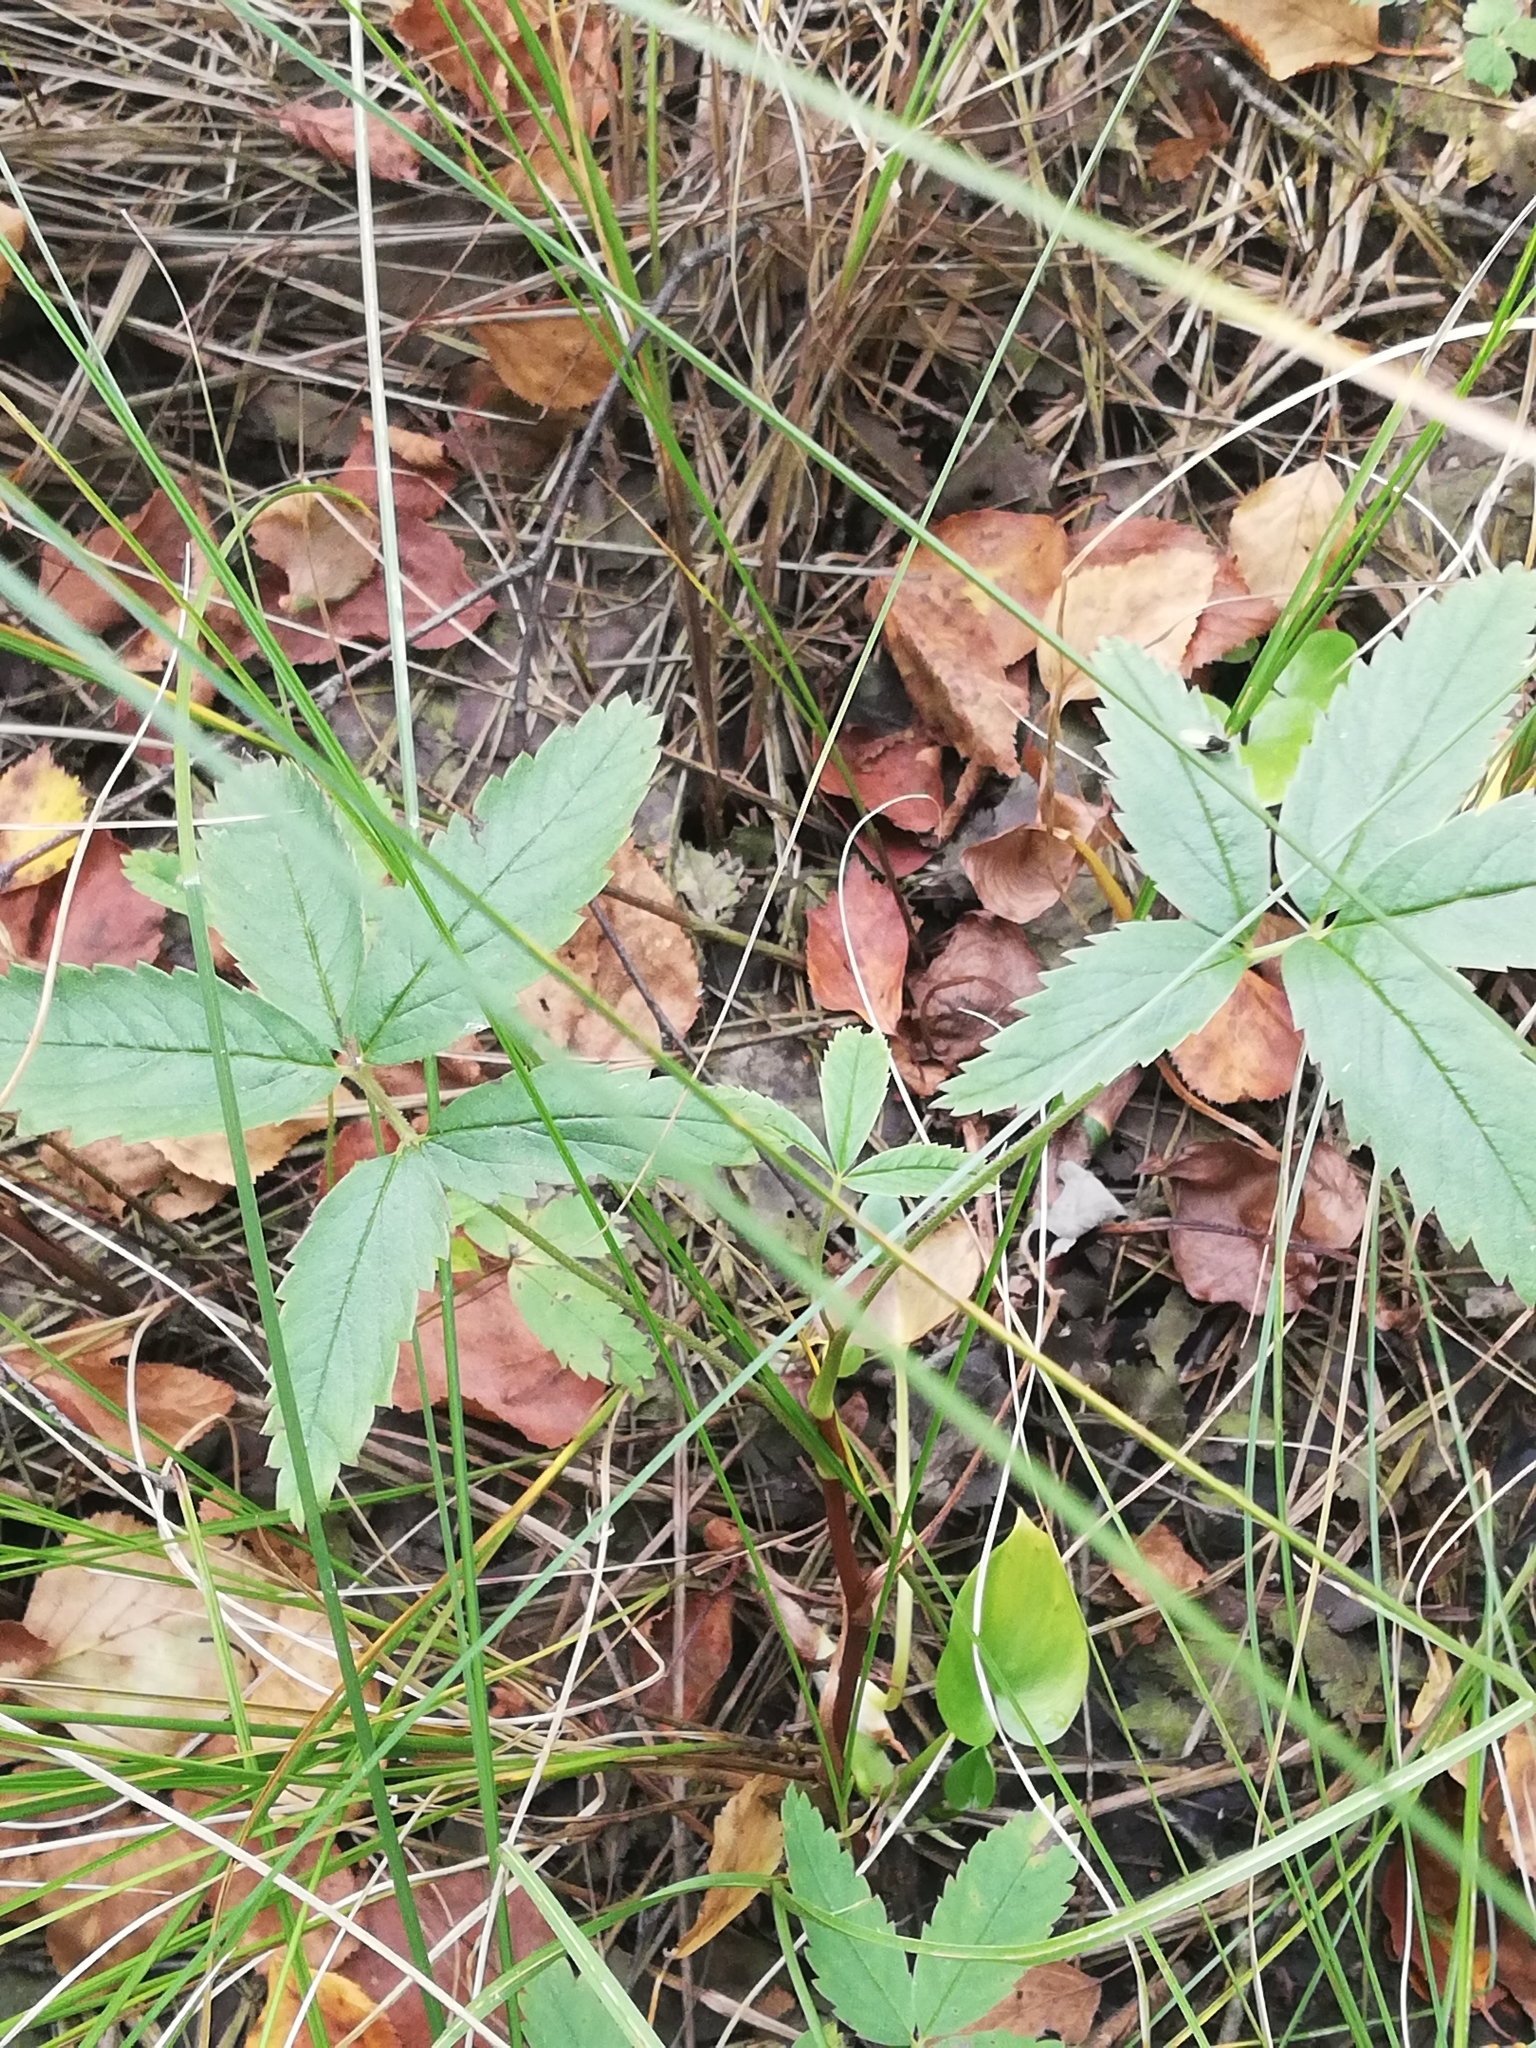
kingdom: Plantae
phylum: Tracheophyta
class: Magnoliopsida
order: Rosales
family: Rosaceae
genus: Comarum
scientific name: Comarum palustre
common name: Marsh cinquefoil
